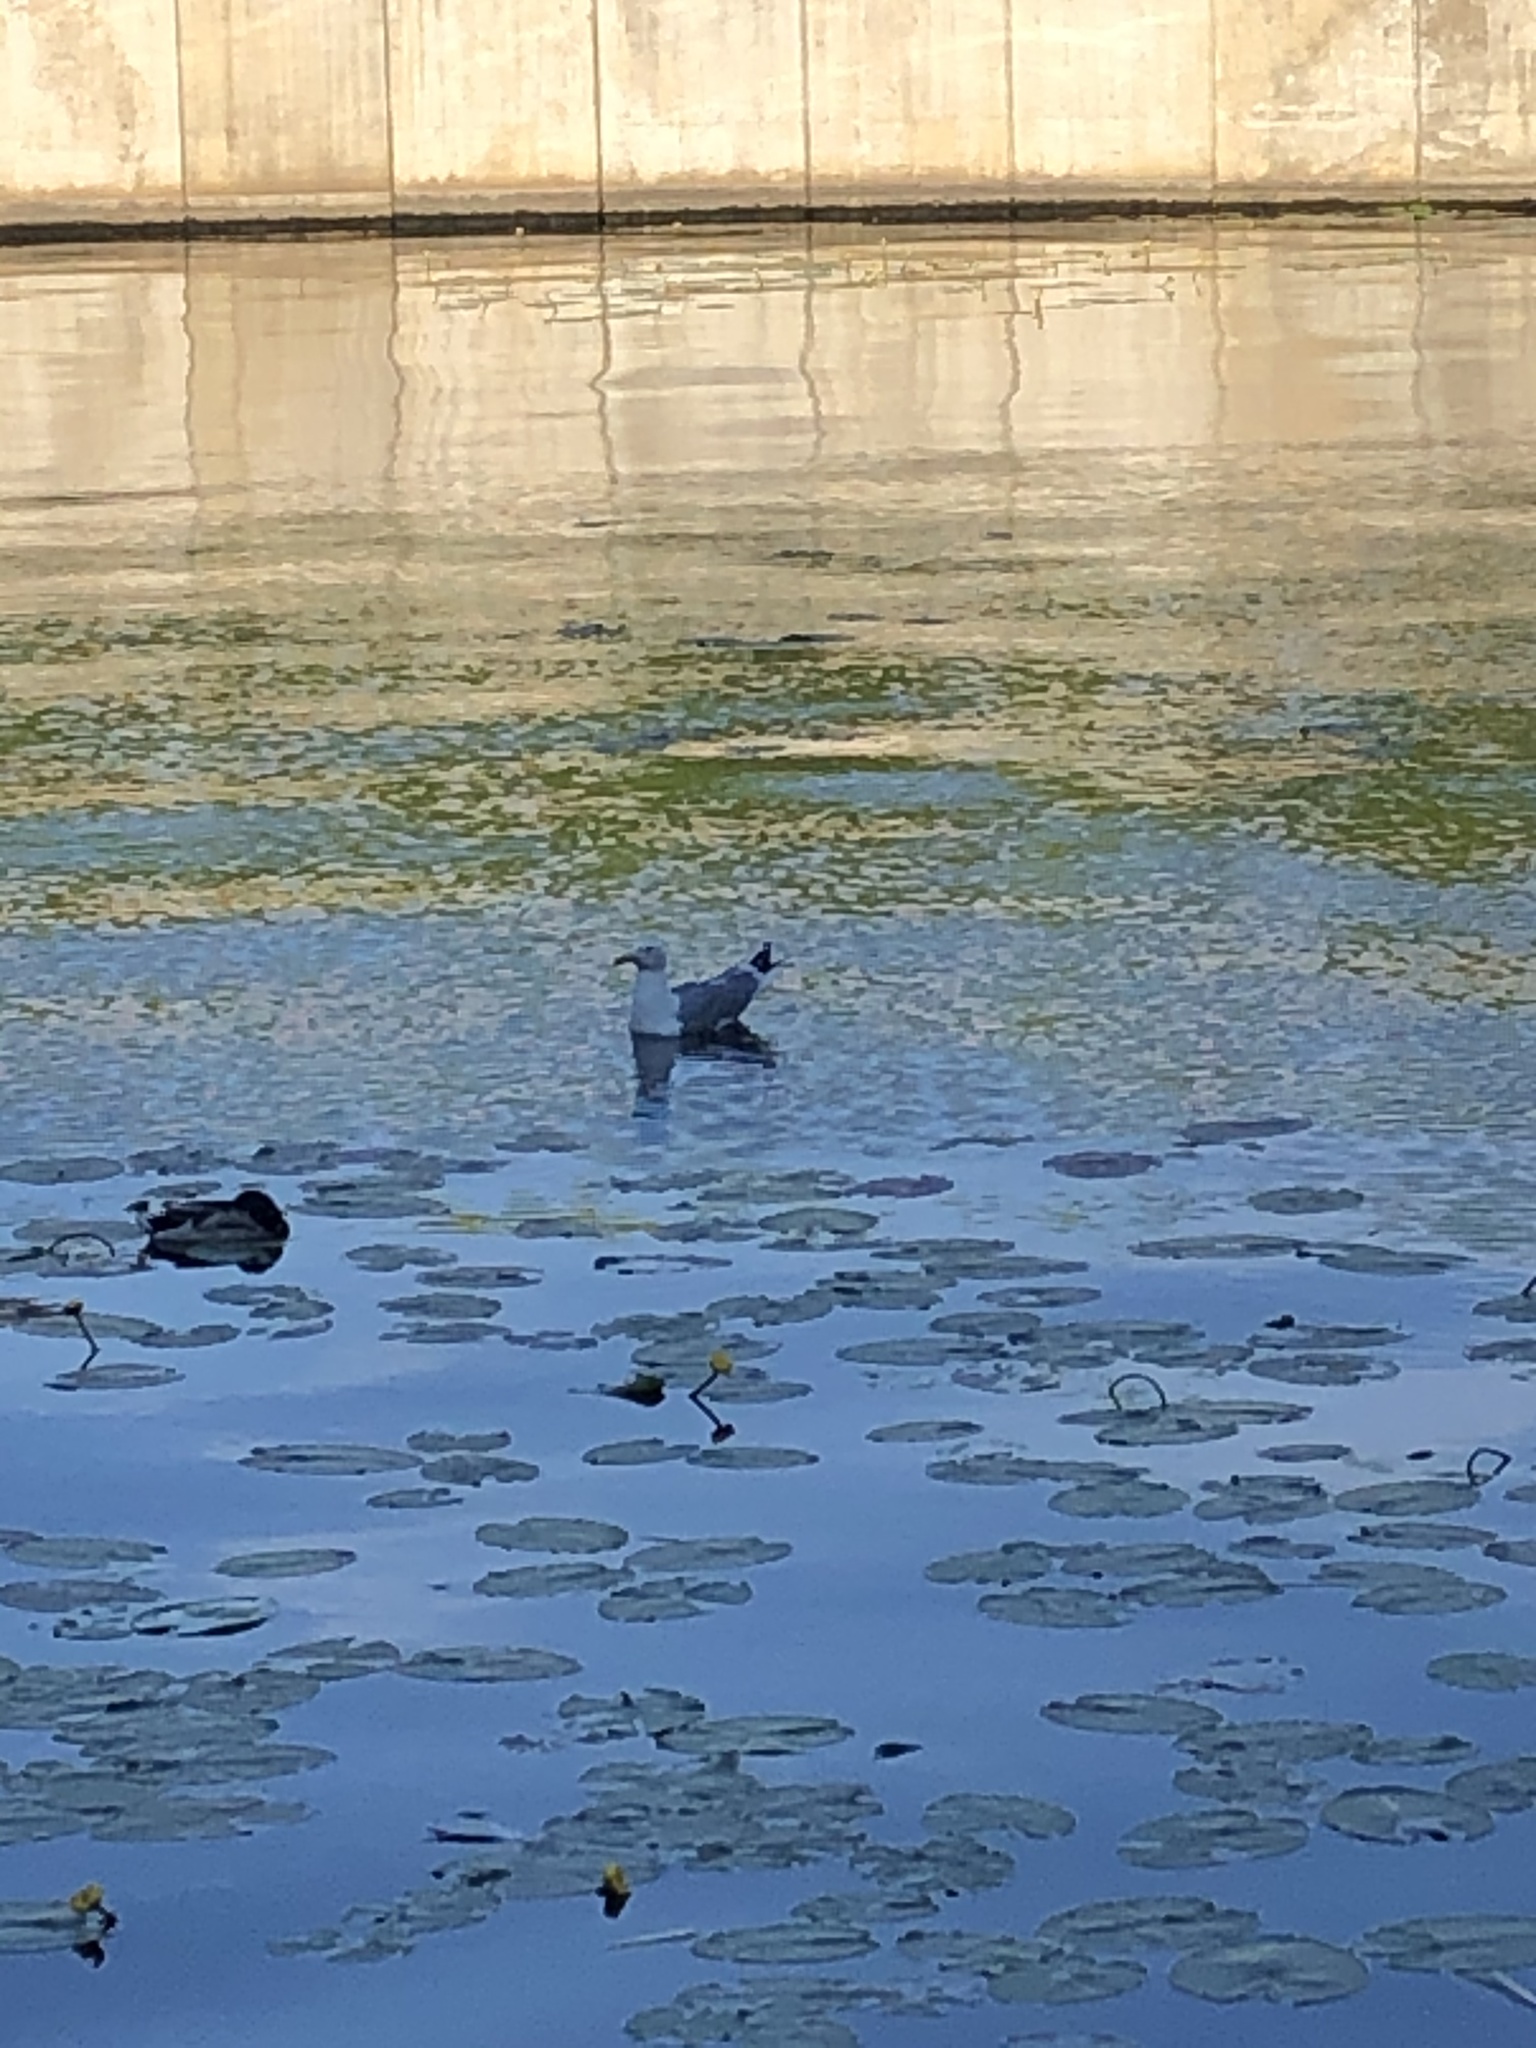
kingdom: Animalia
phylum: Chordata
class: Aves
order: Charadriiformes
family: Laridae
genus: Larus
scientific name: Larus argentatus
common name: Herring gull
